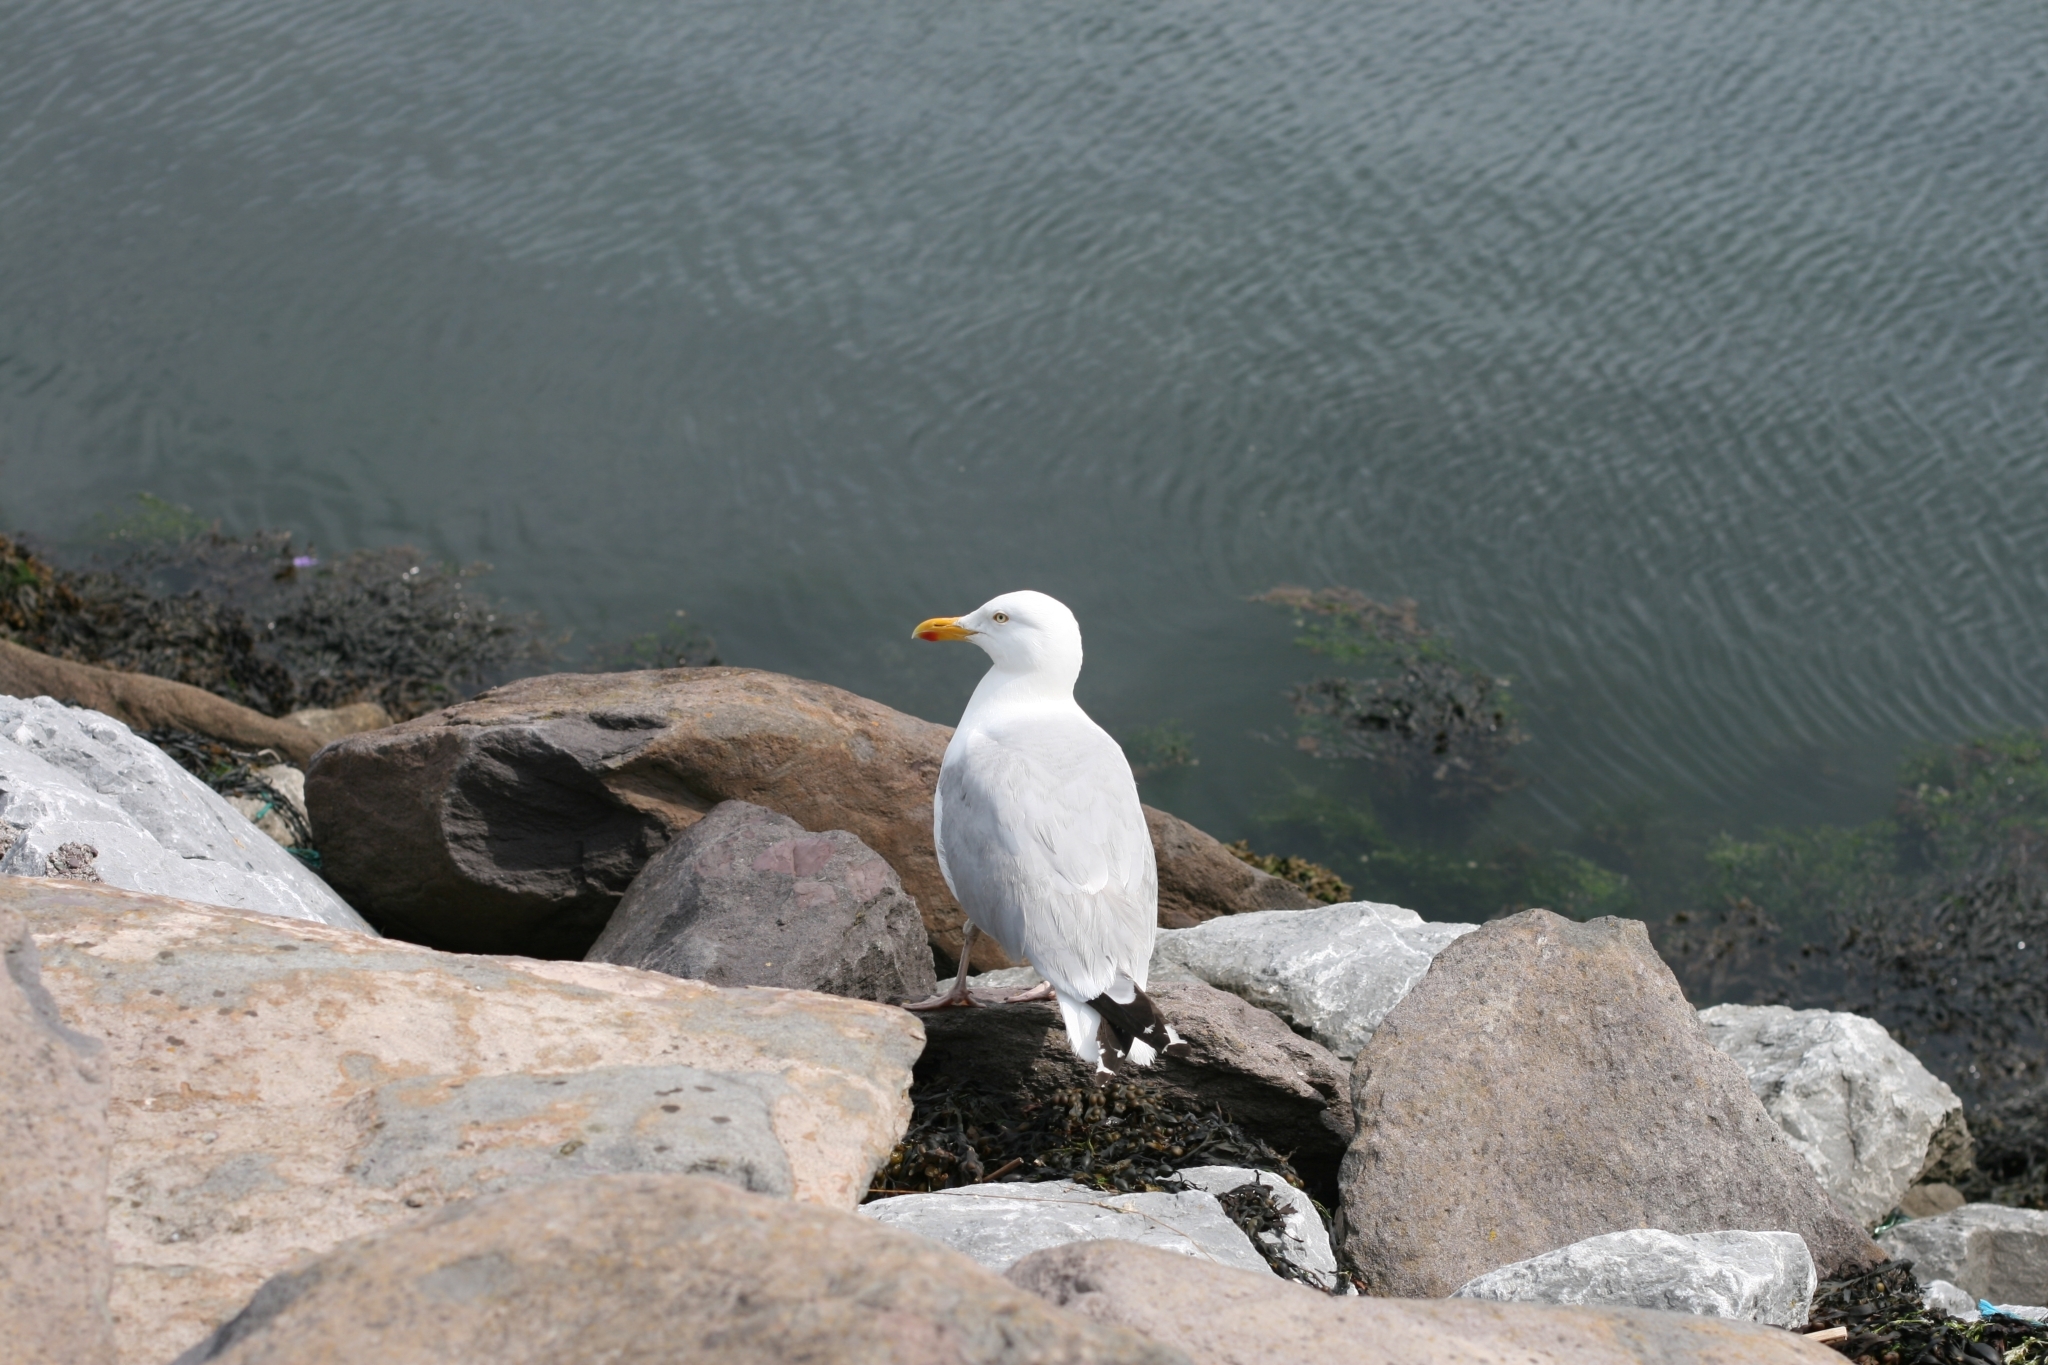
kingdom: Animalia
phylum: Chordata
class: Aves
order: Charadriiformes
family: Laridae
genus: Larus
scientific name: Larus argentatus
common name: Herring gull
